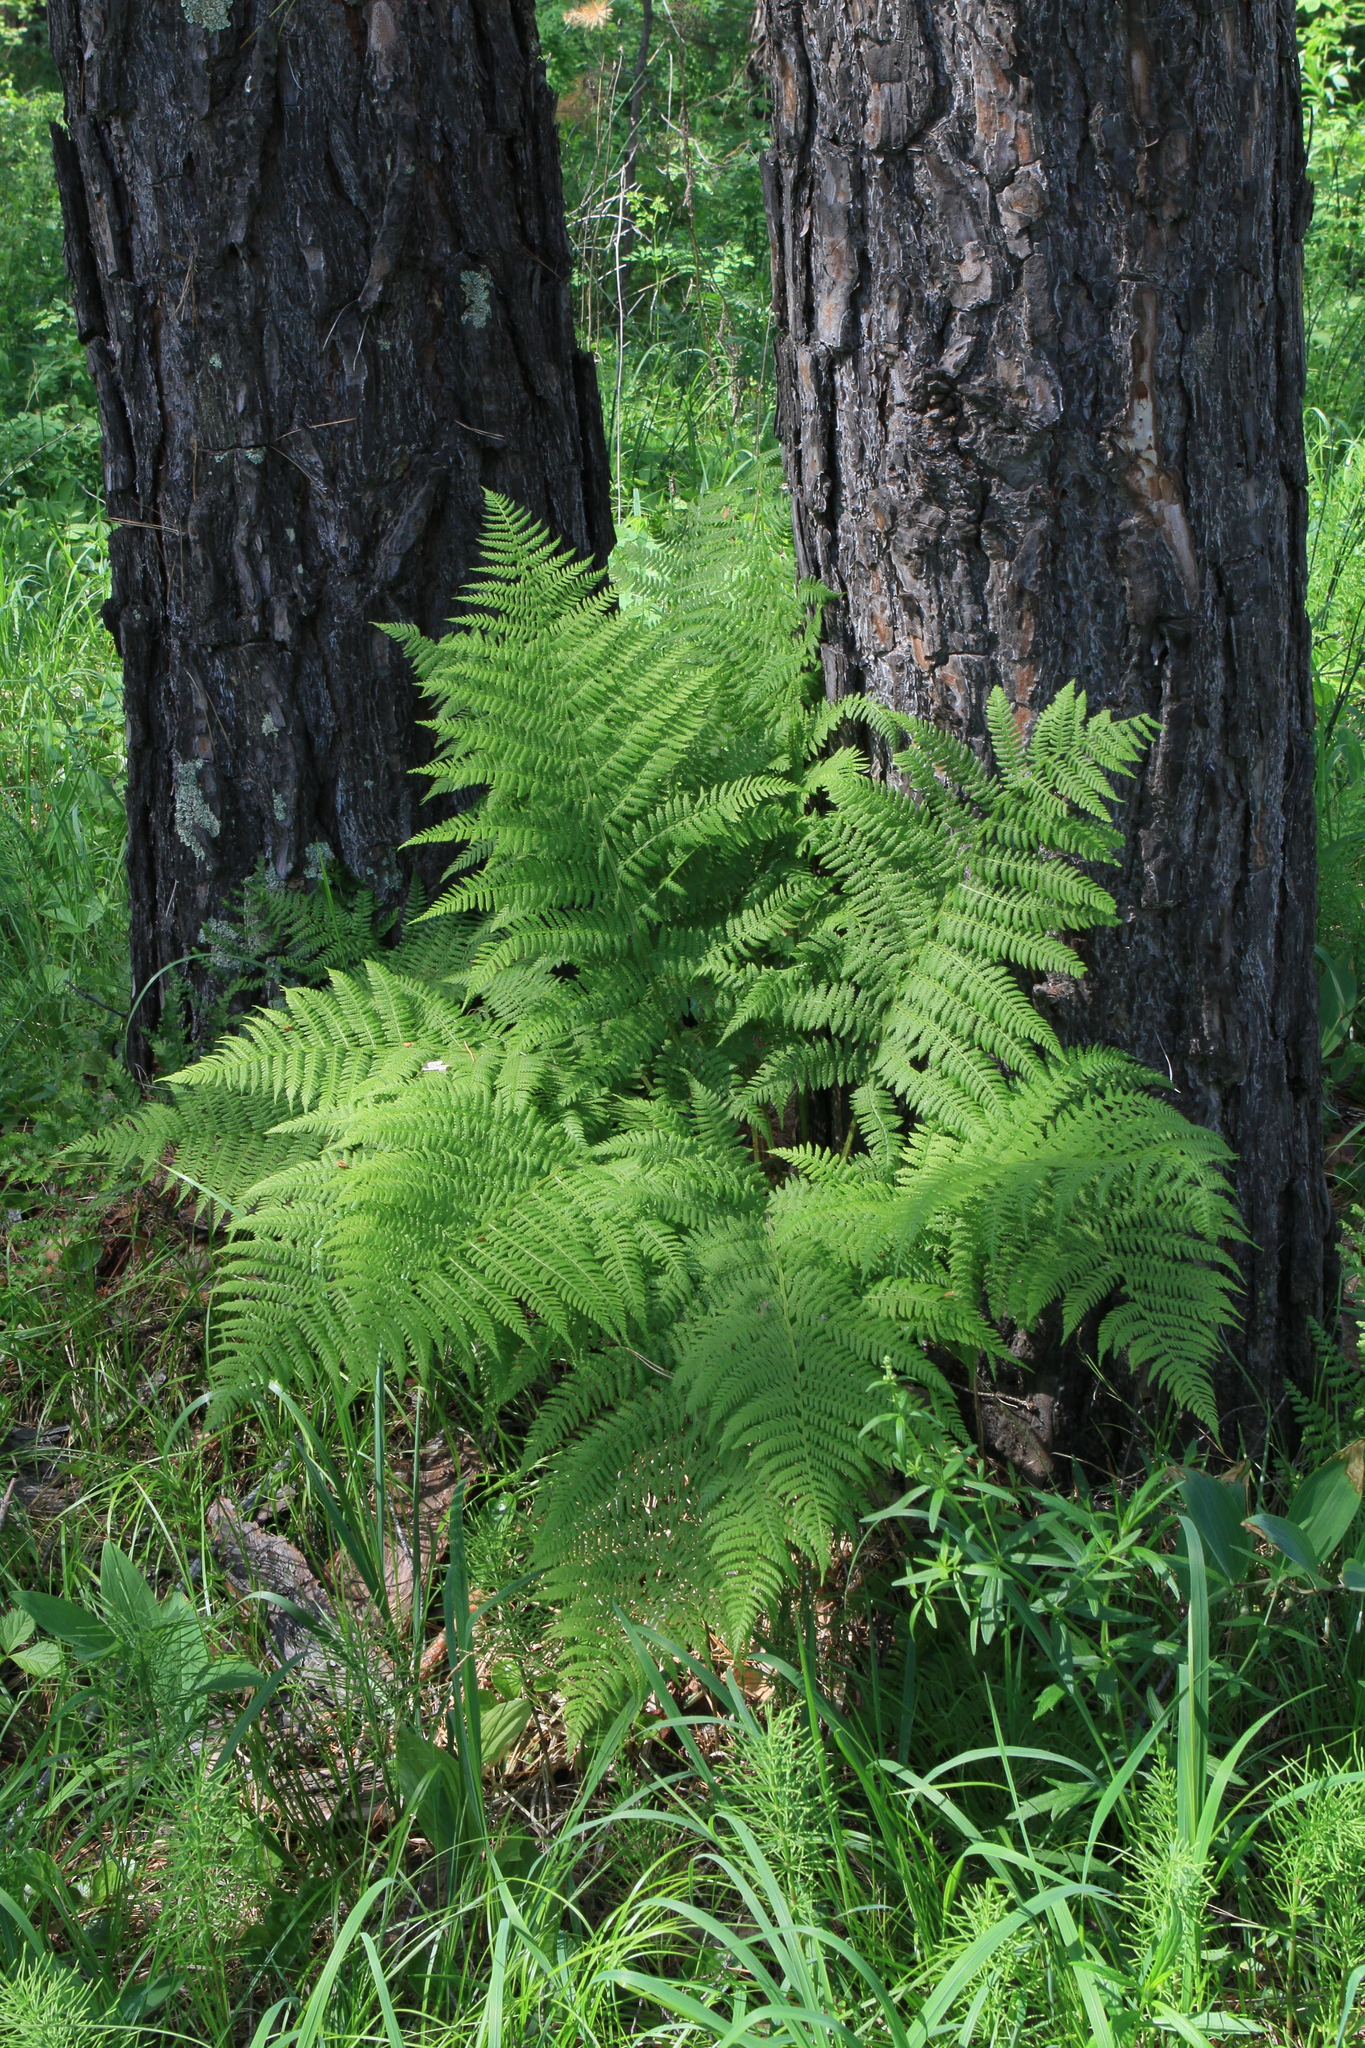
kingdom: Plantae
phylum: Tracheophyta
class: Polypodiopsida
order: Polypodiales
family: Athyriaceae
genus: Athyrium
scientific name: Athyrium filix-femina
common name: Lady fern
